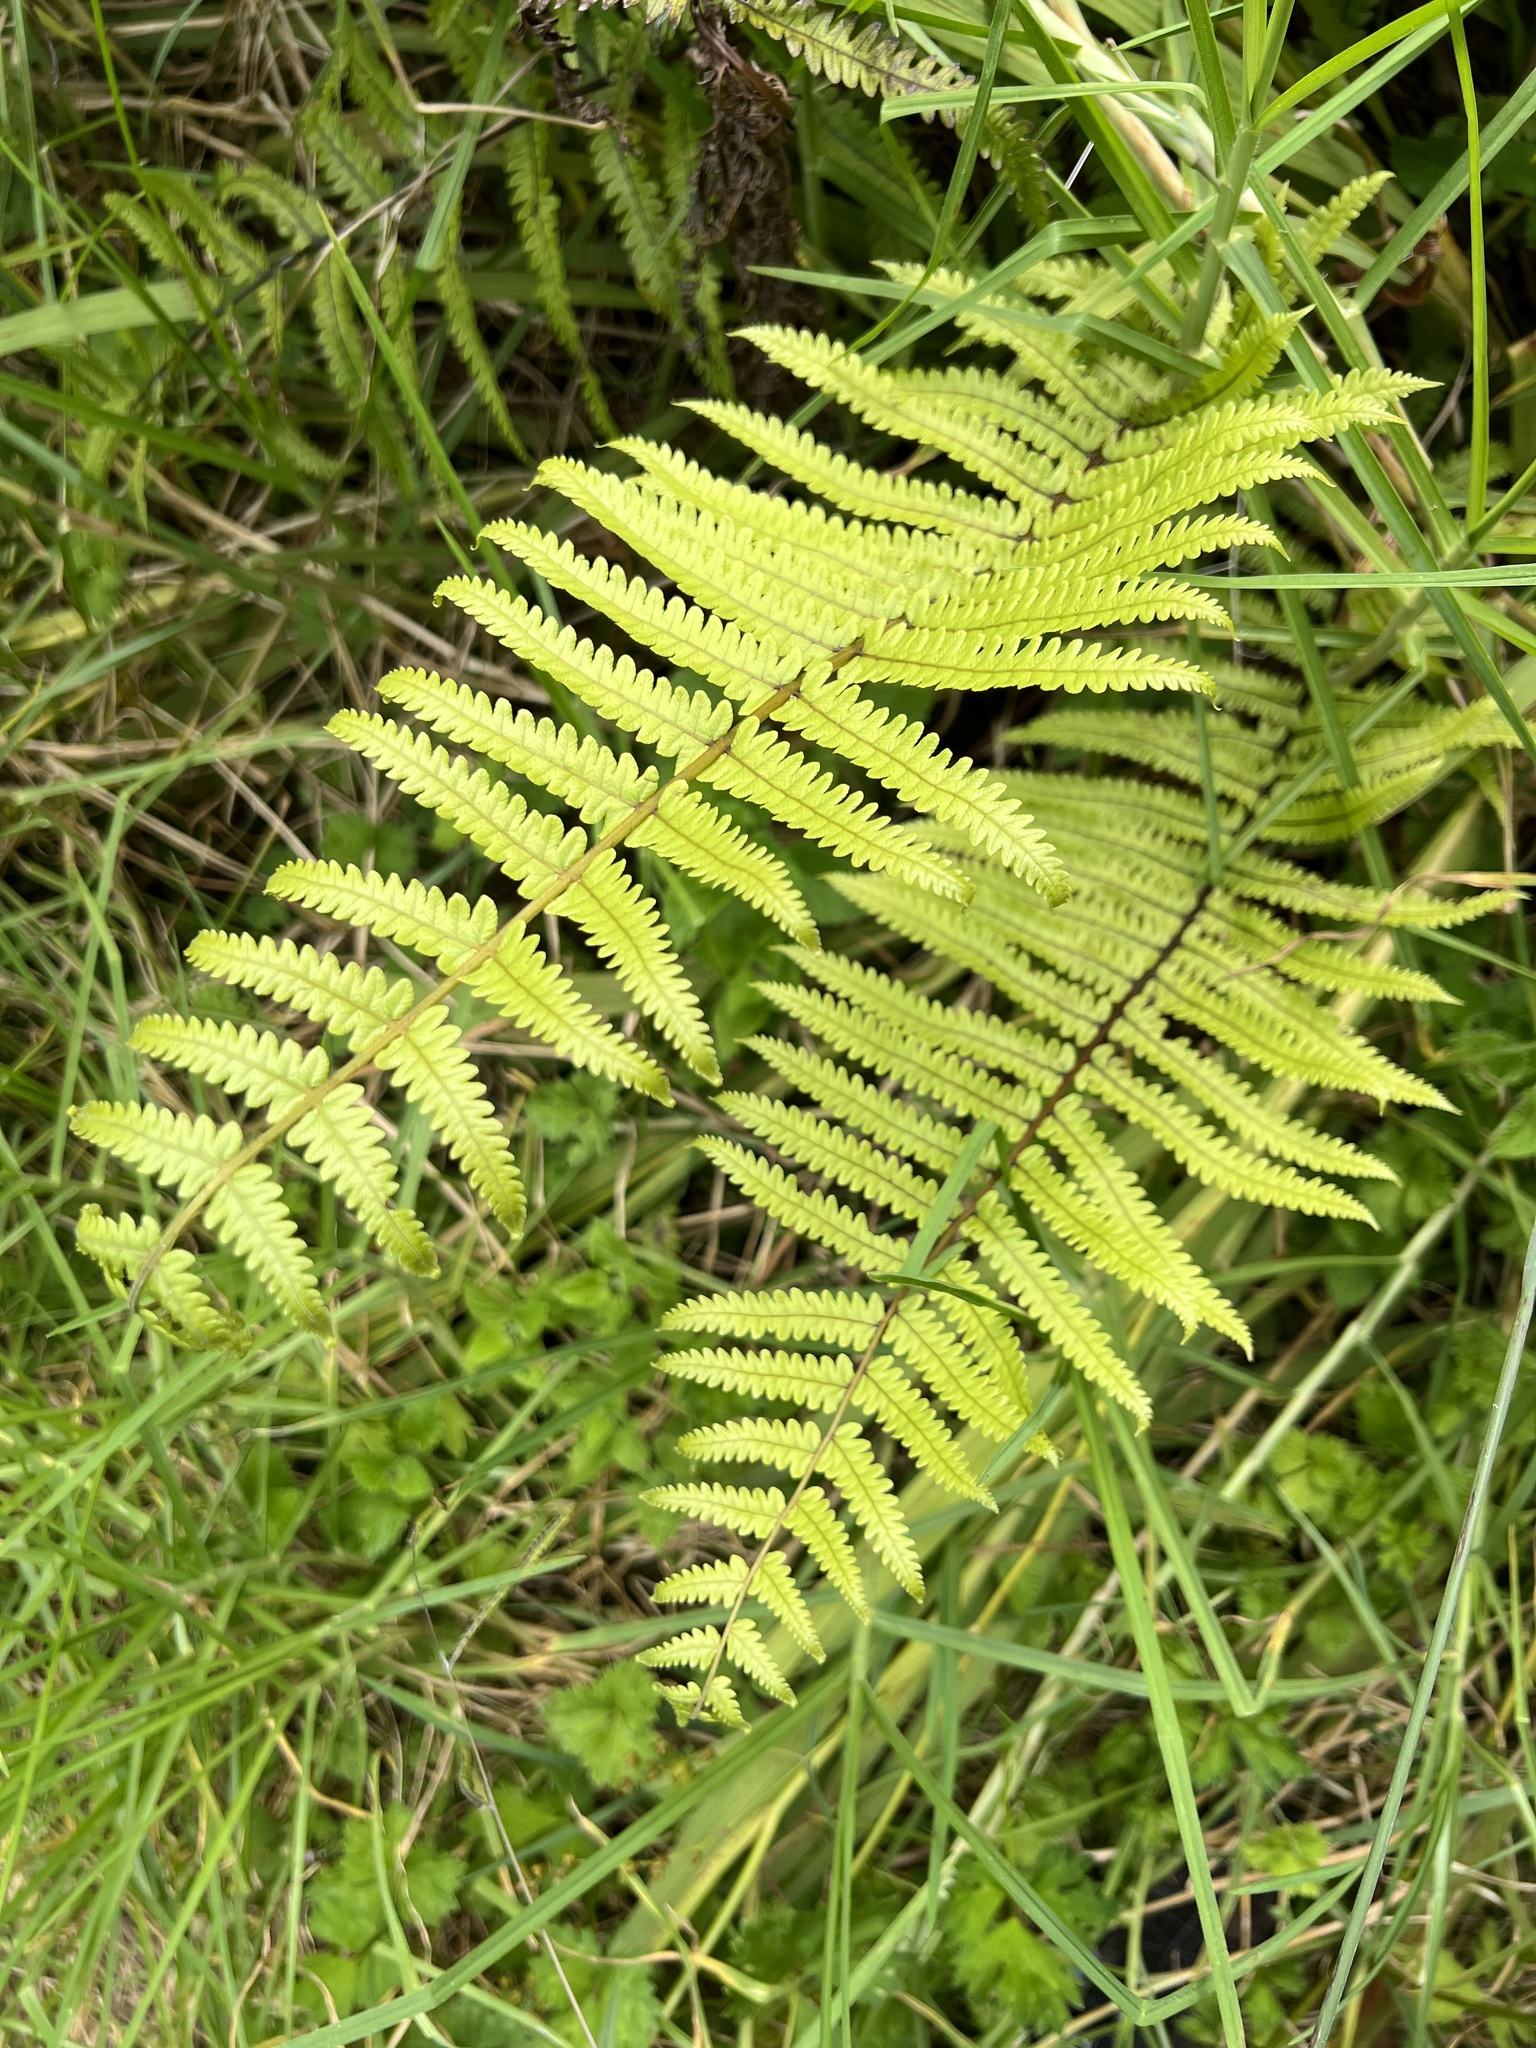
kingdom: Plantae
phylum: Tracheophyta
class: Polypodiopsida
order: Polypodiales
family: Thelypteridaceae
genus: Pakau
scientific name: Pakau pennigera
